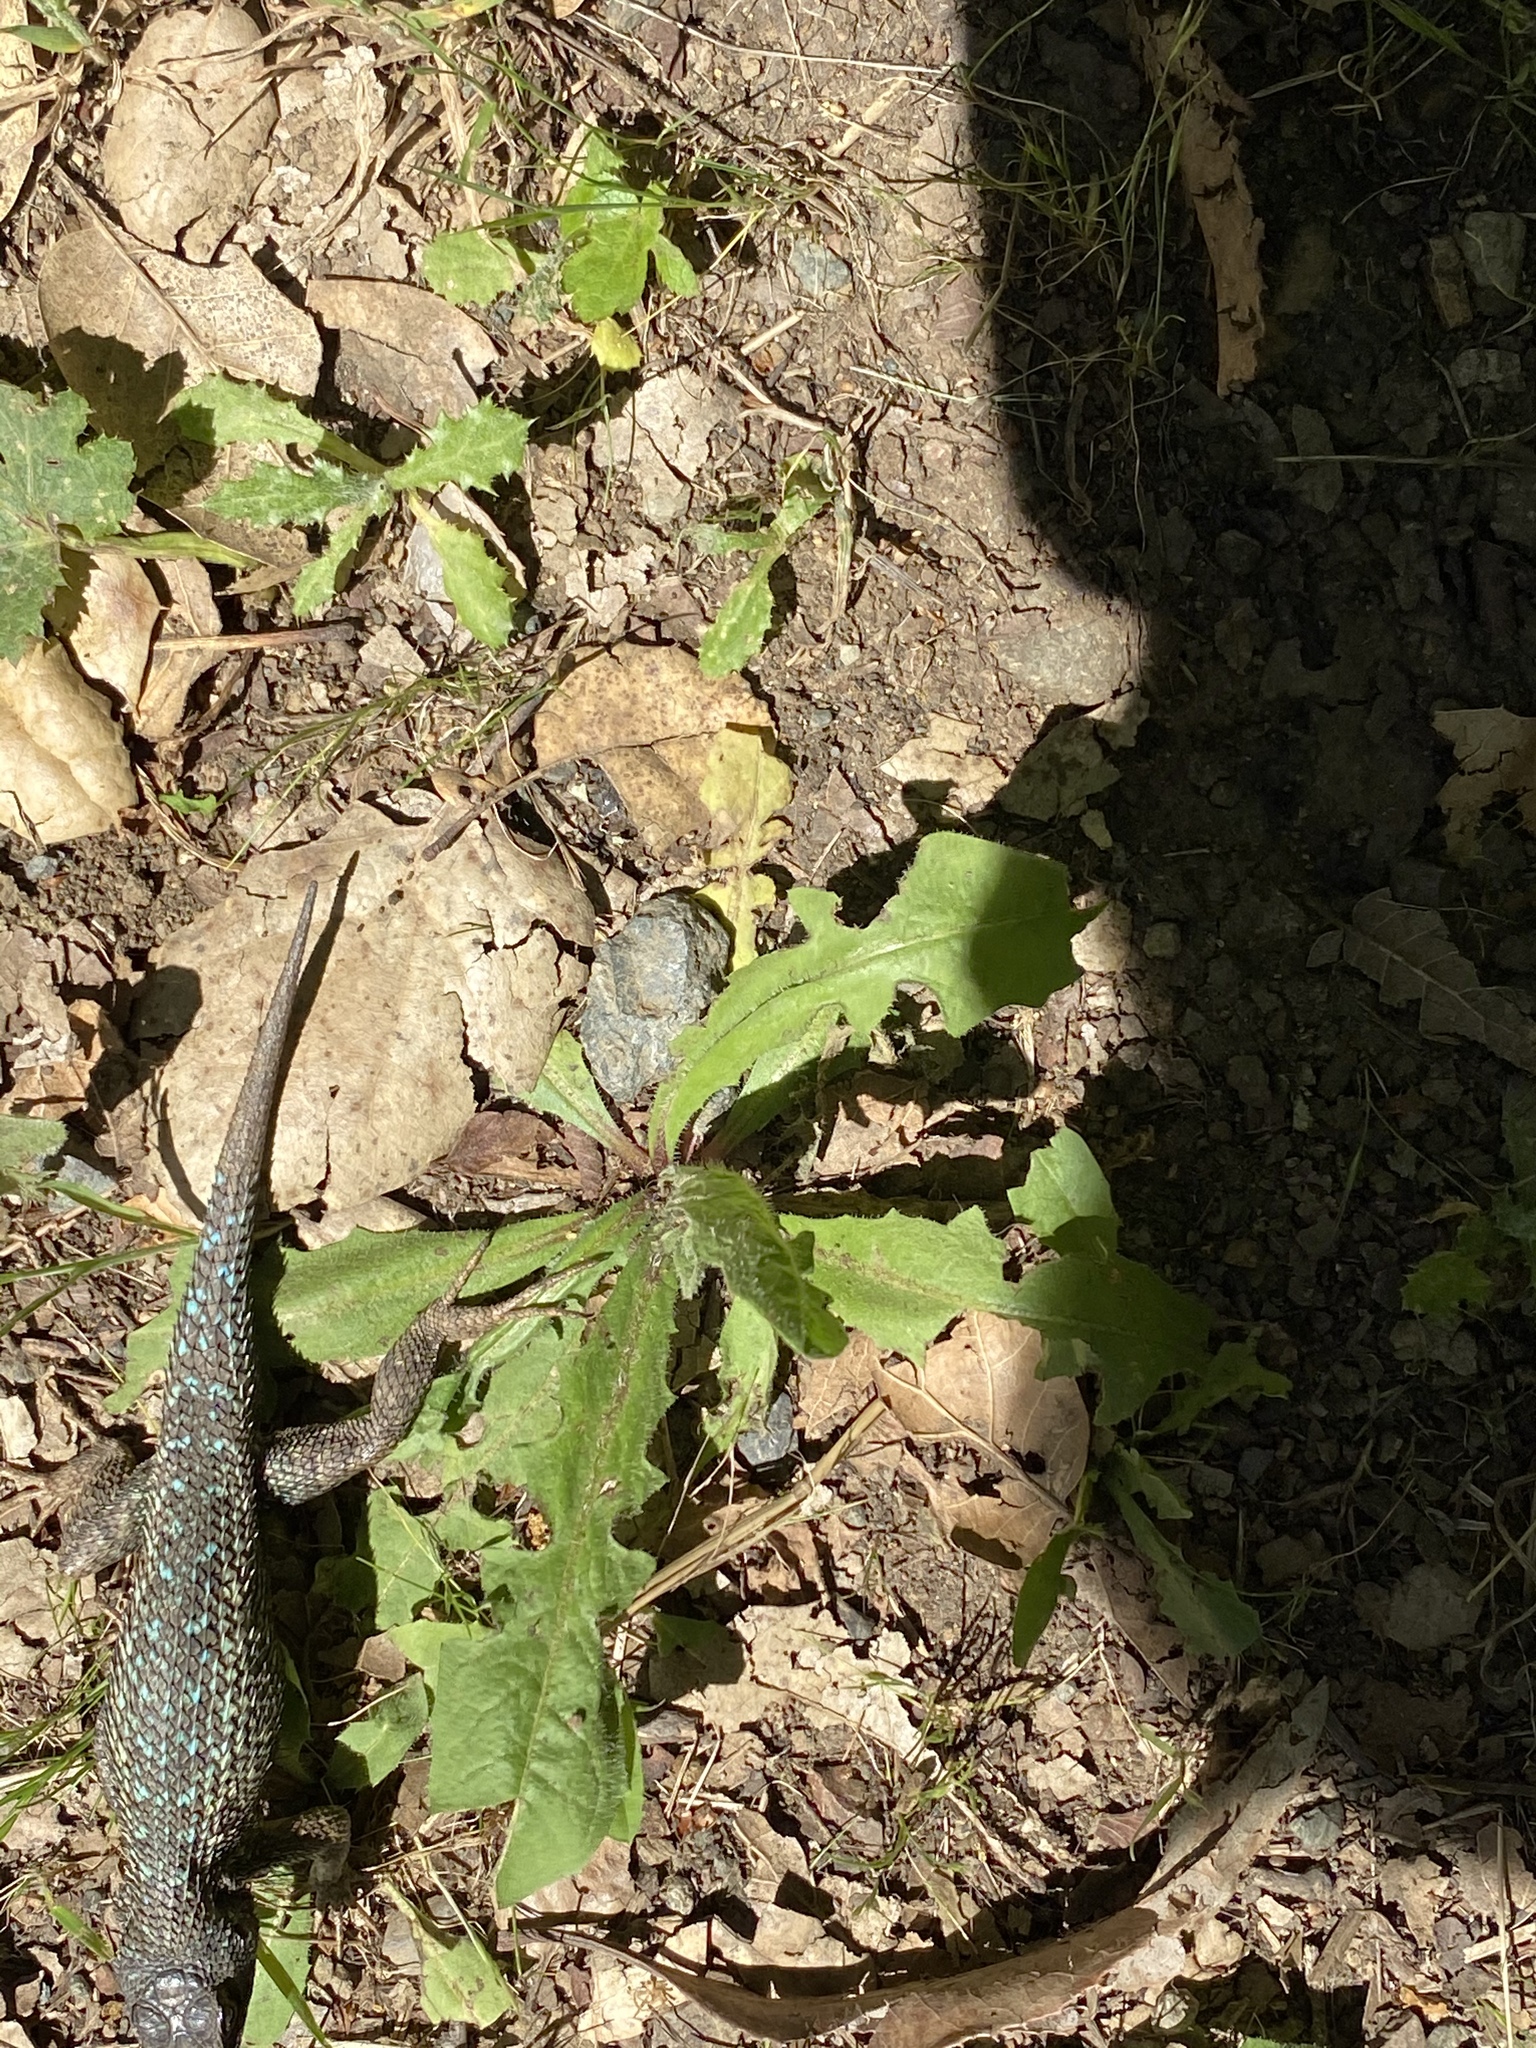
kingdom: Animalia
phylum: Chordata
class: Squamata
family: Phrynosomatidae
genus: Sceloporus
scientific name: Sceloporus occidentalis
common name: Western fence lizard
